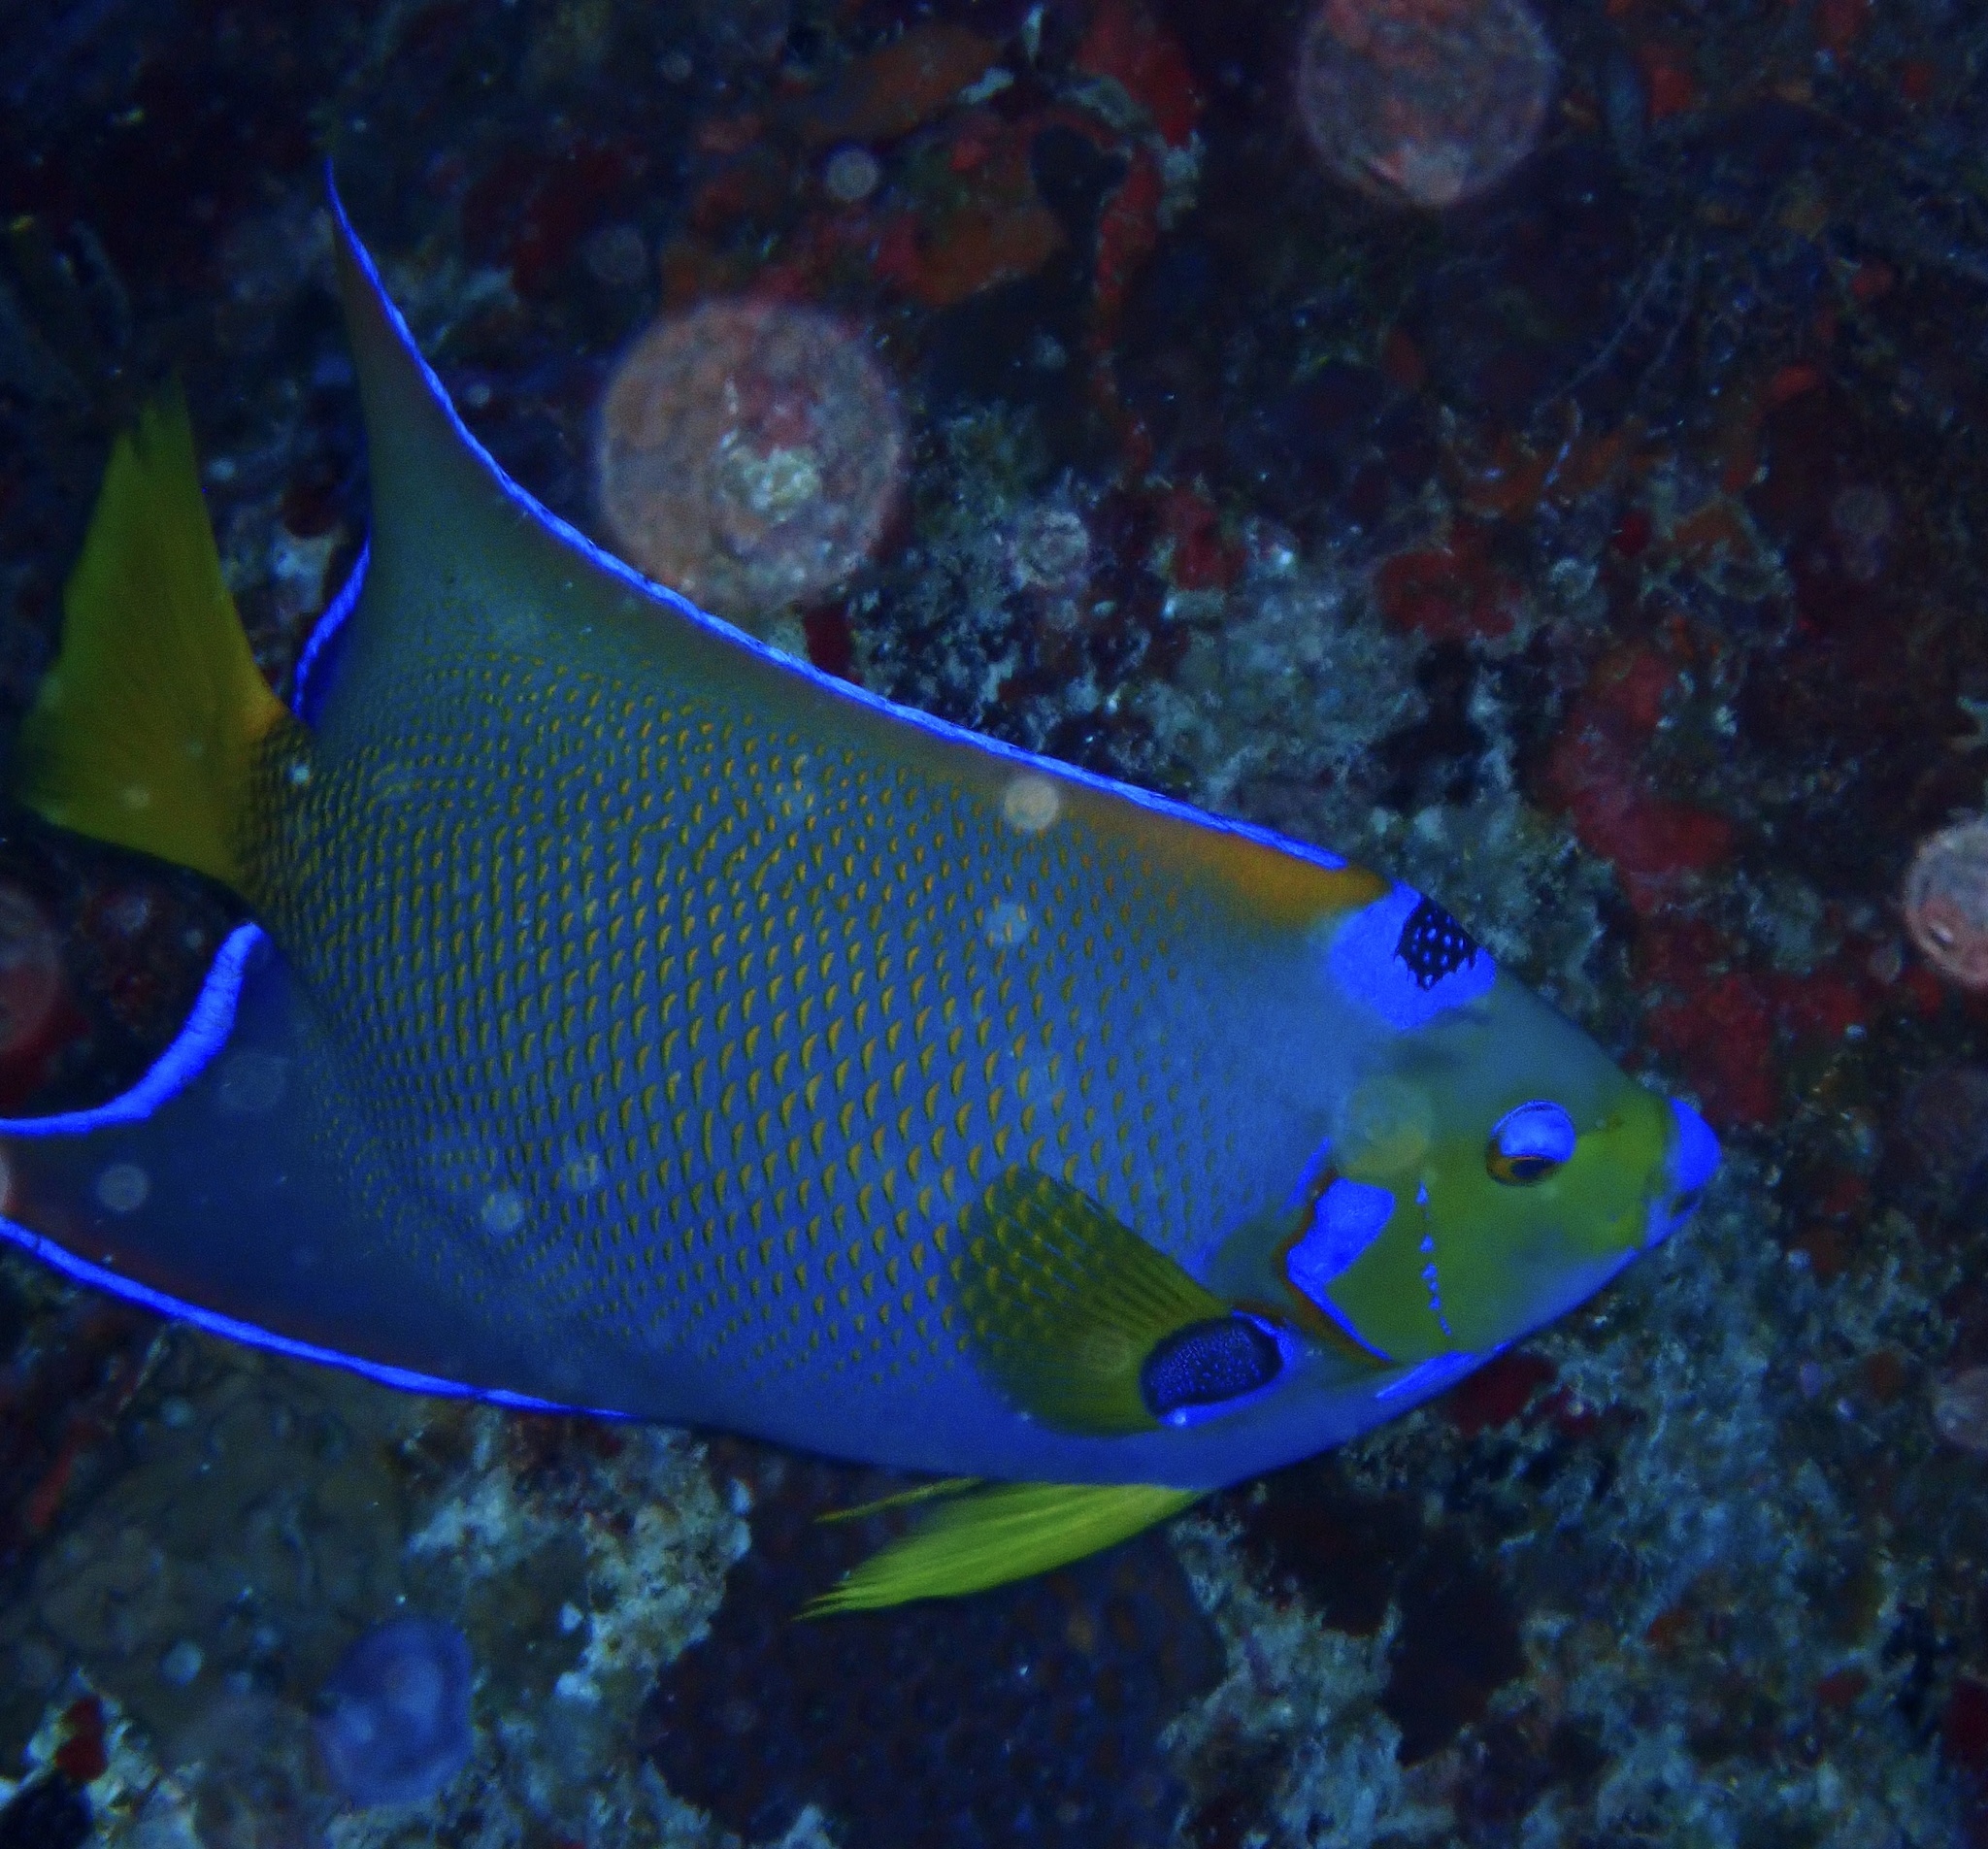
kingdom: Animalia
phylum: Chordata
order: Perciformes
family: Pomacanthidae
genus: Holacanthus
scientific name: Holacanthus ciliaris
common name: Queen angelfish
